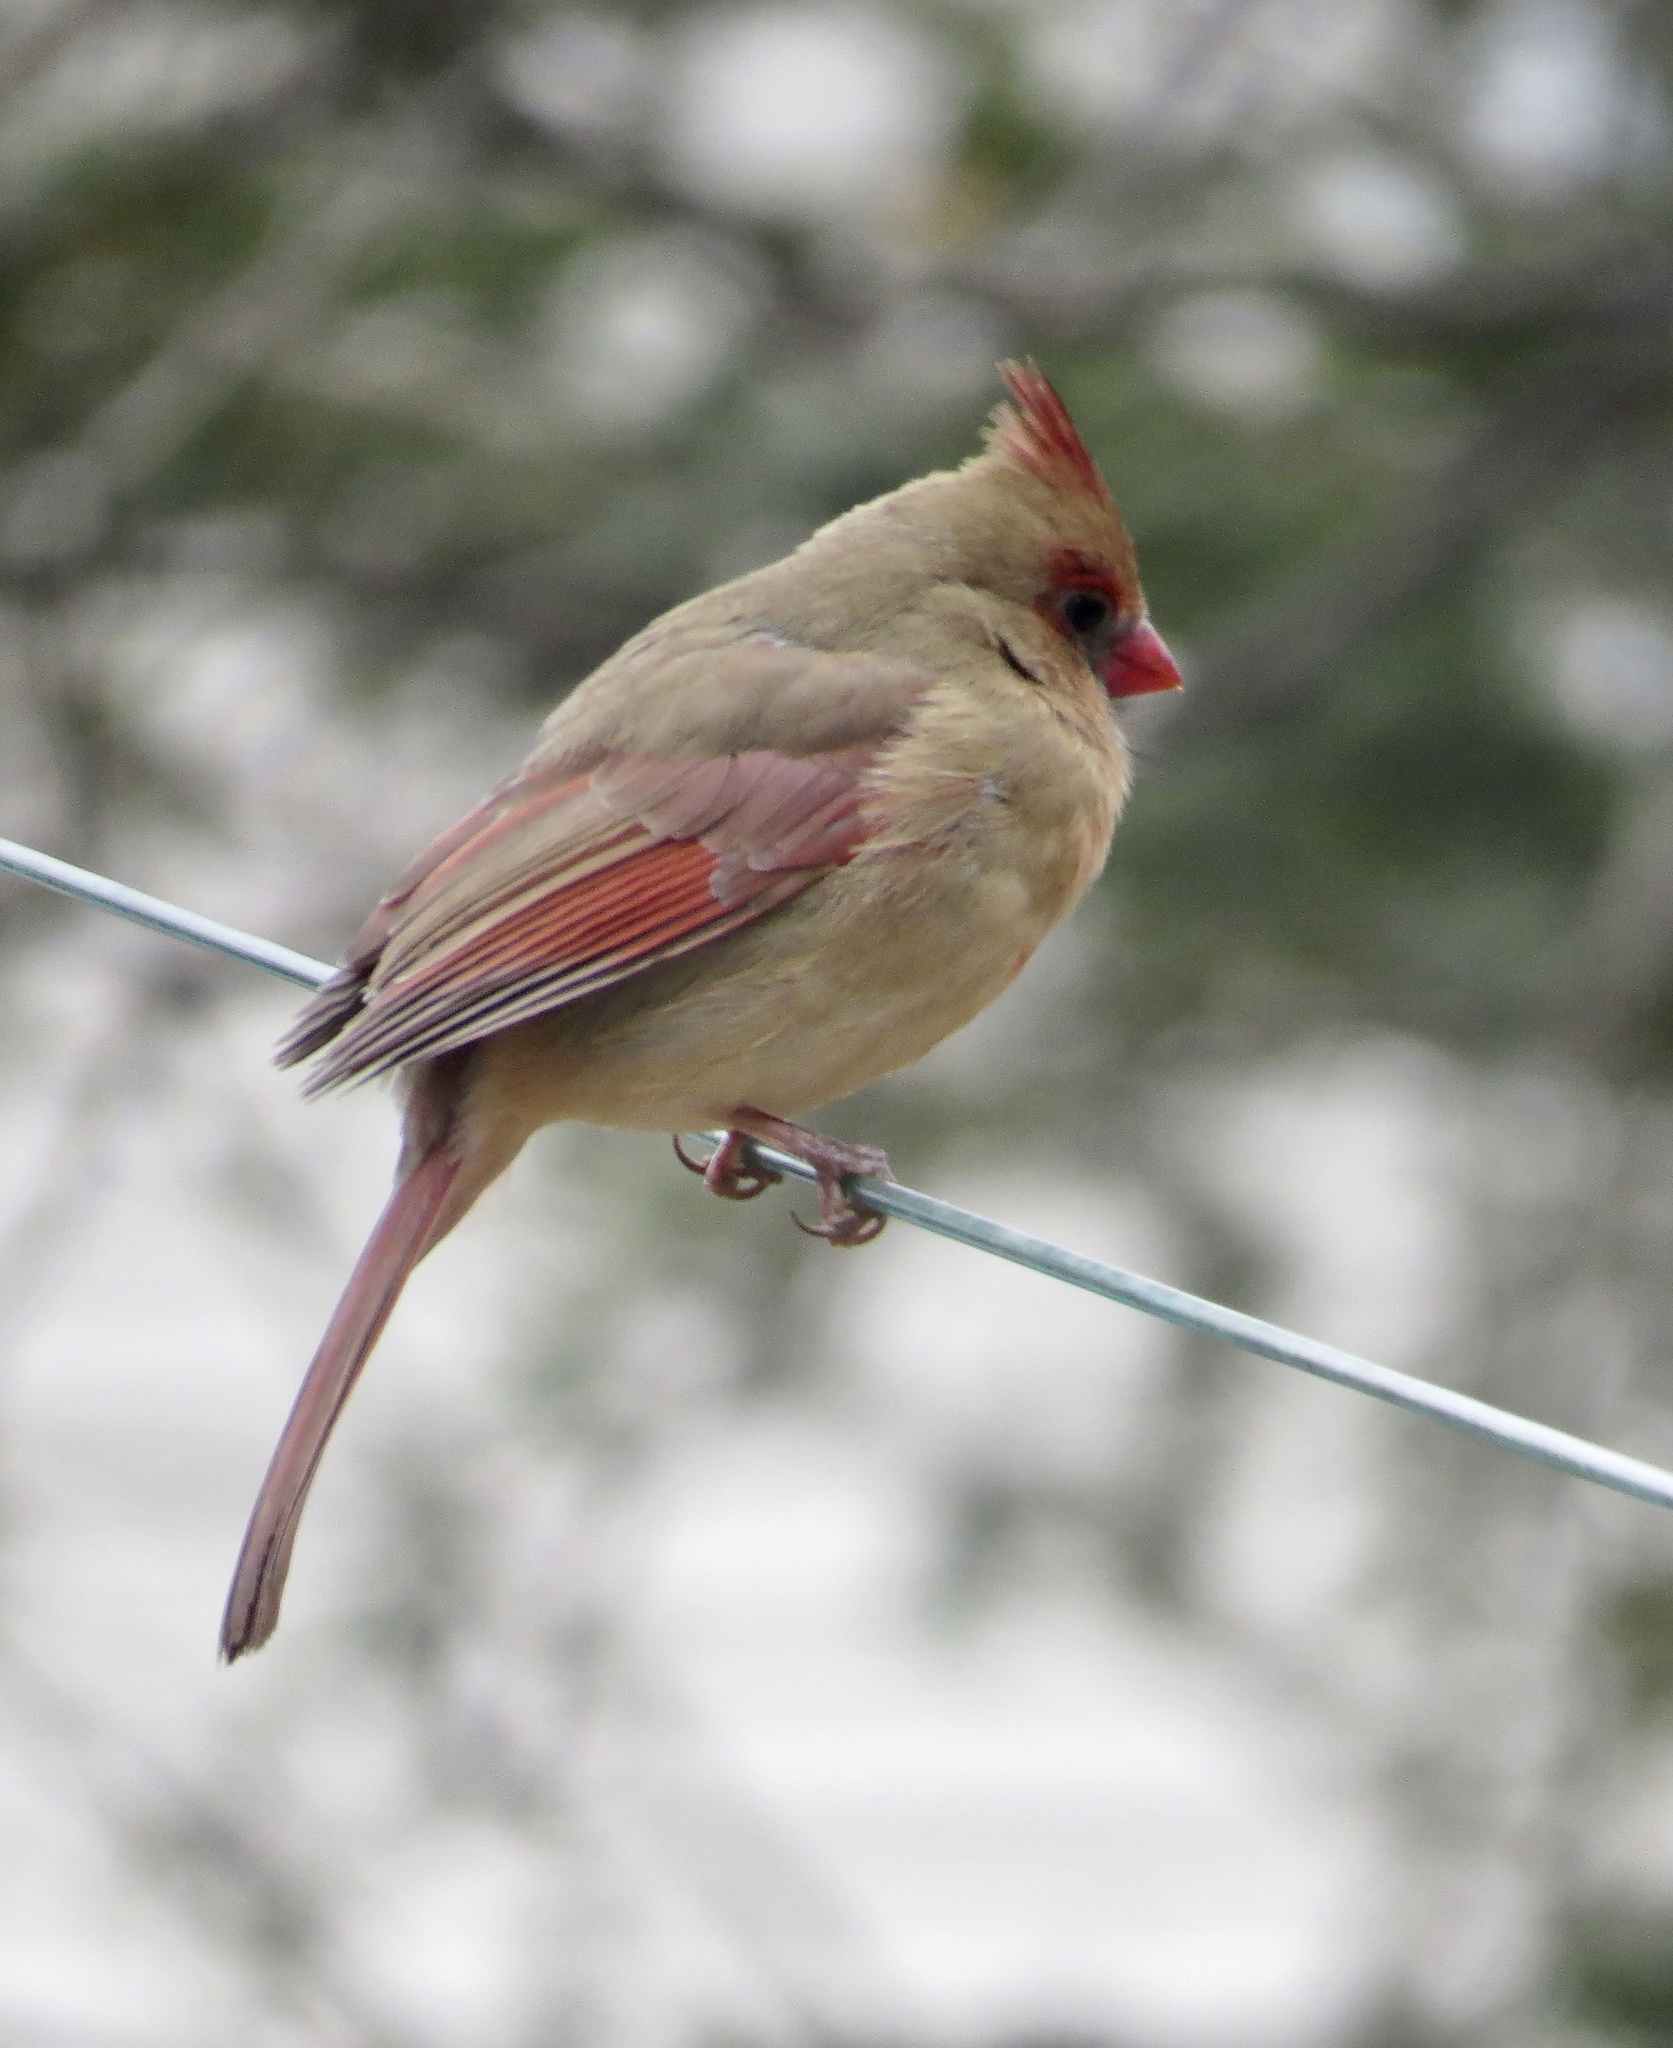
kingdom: Animalia
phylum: Chordata
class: Aves
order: Passeriformes
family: Cardinalidae
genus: Cardinalis
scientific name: Cardinalis cardinalis
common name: Northern cardinal
